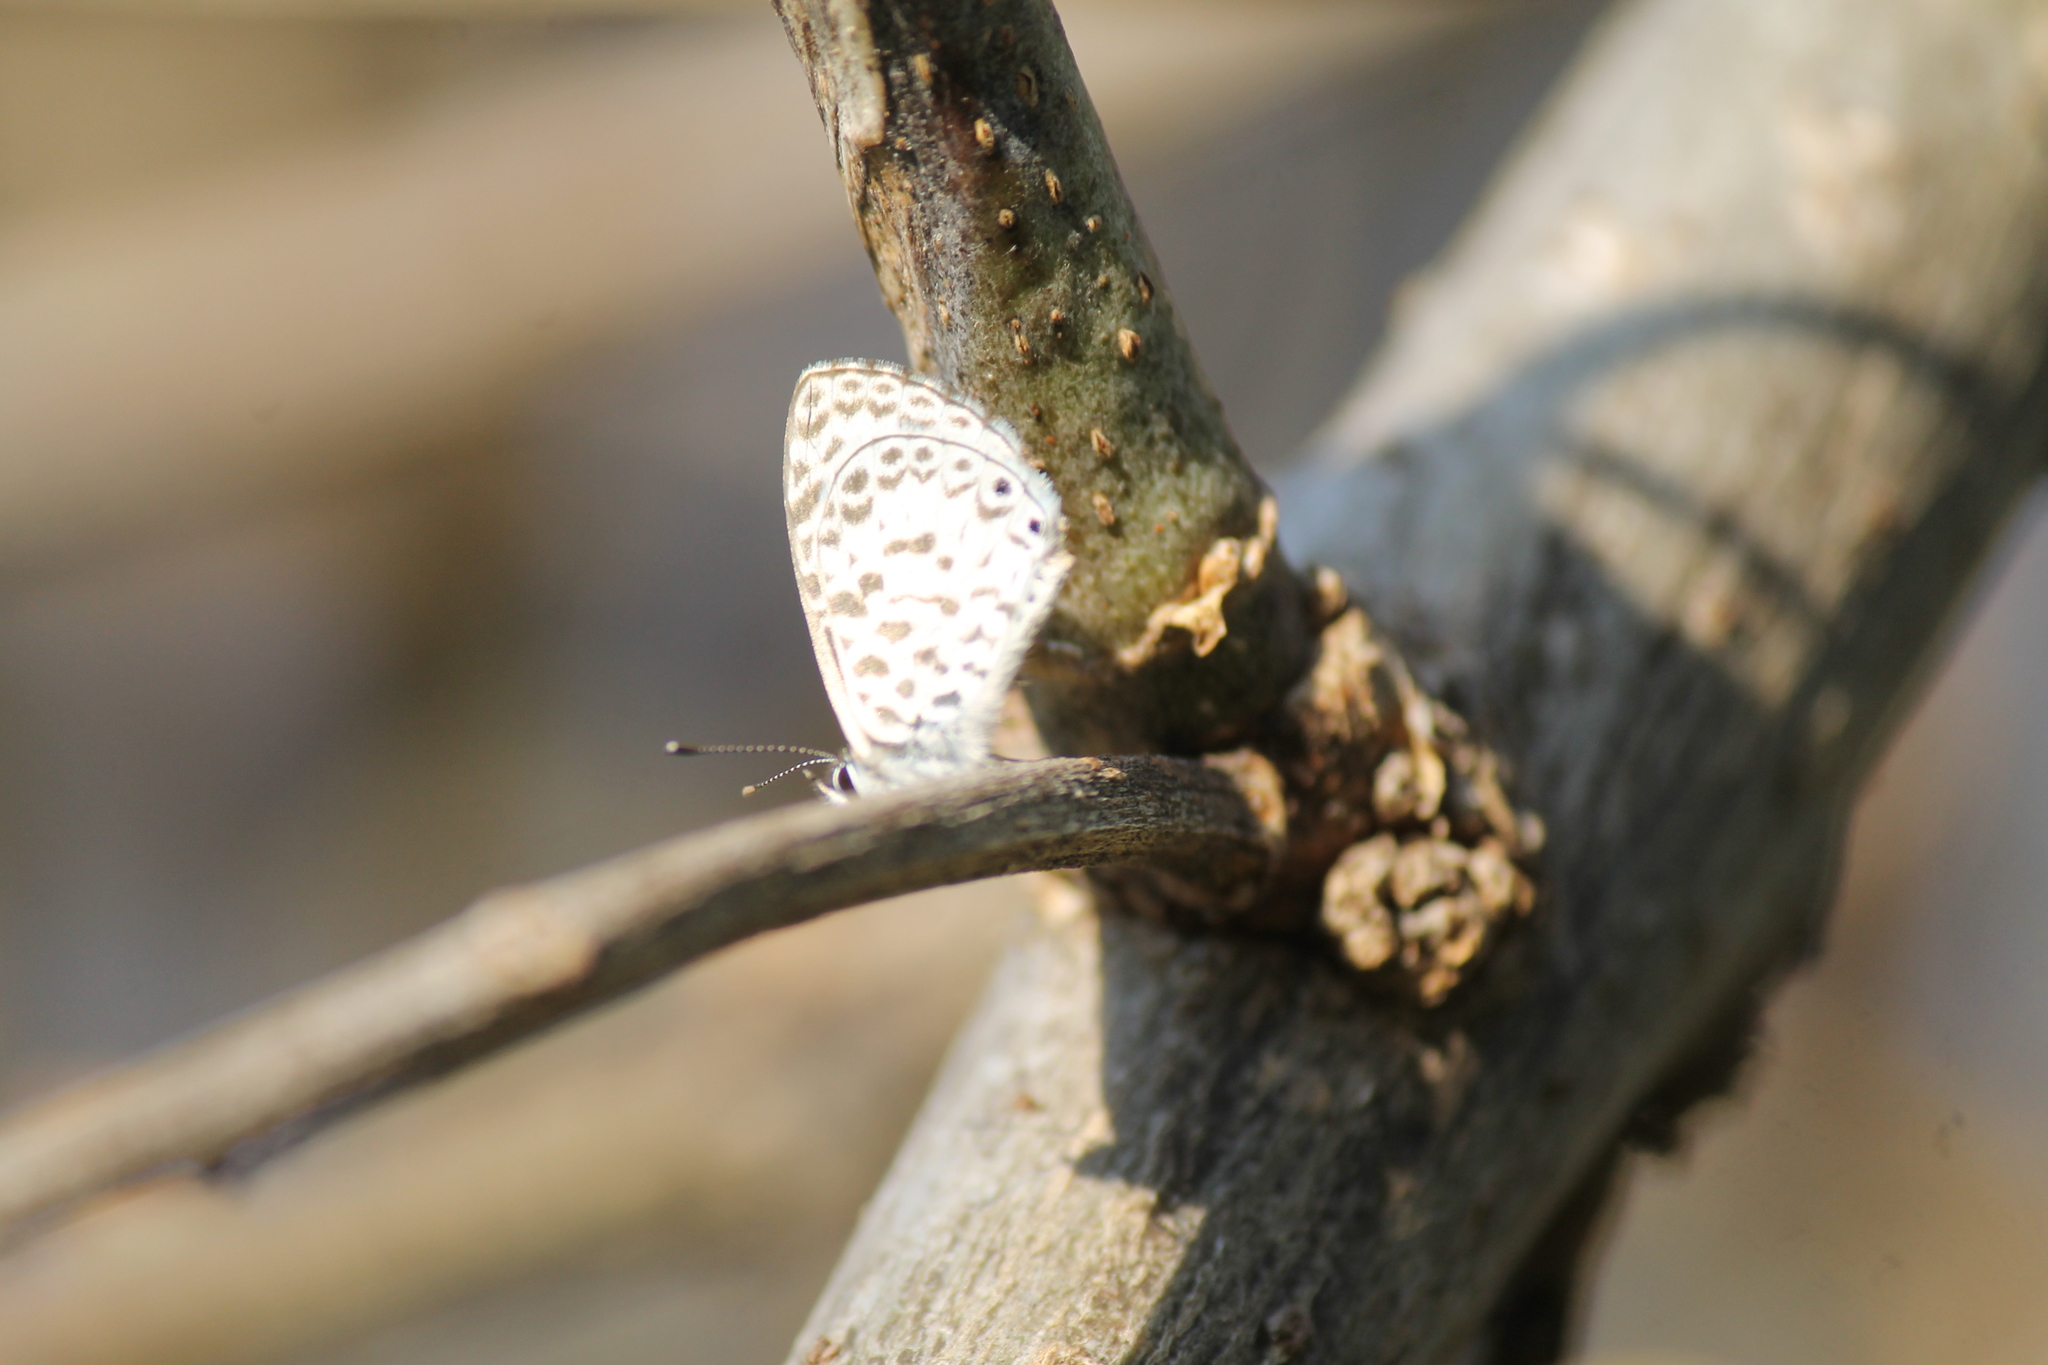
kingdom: Animalia
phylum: Arthropoda
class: Insecta
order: Lepidoptera
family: Lycaenidae
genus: Leptotes
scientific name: Leptotes cassius
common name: Cassius blue
